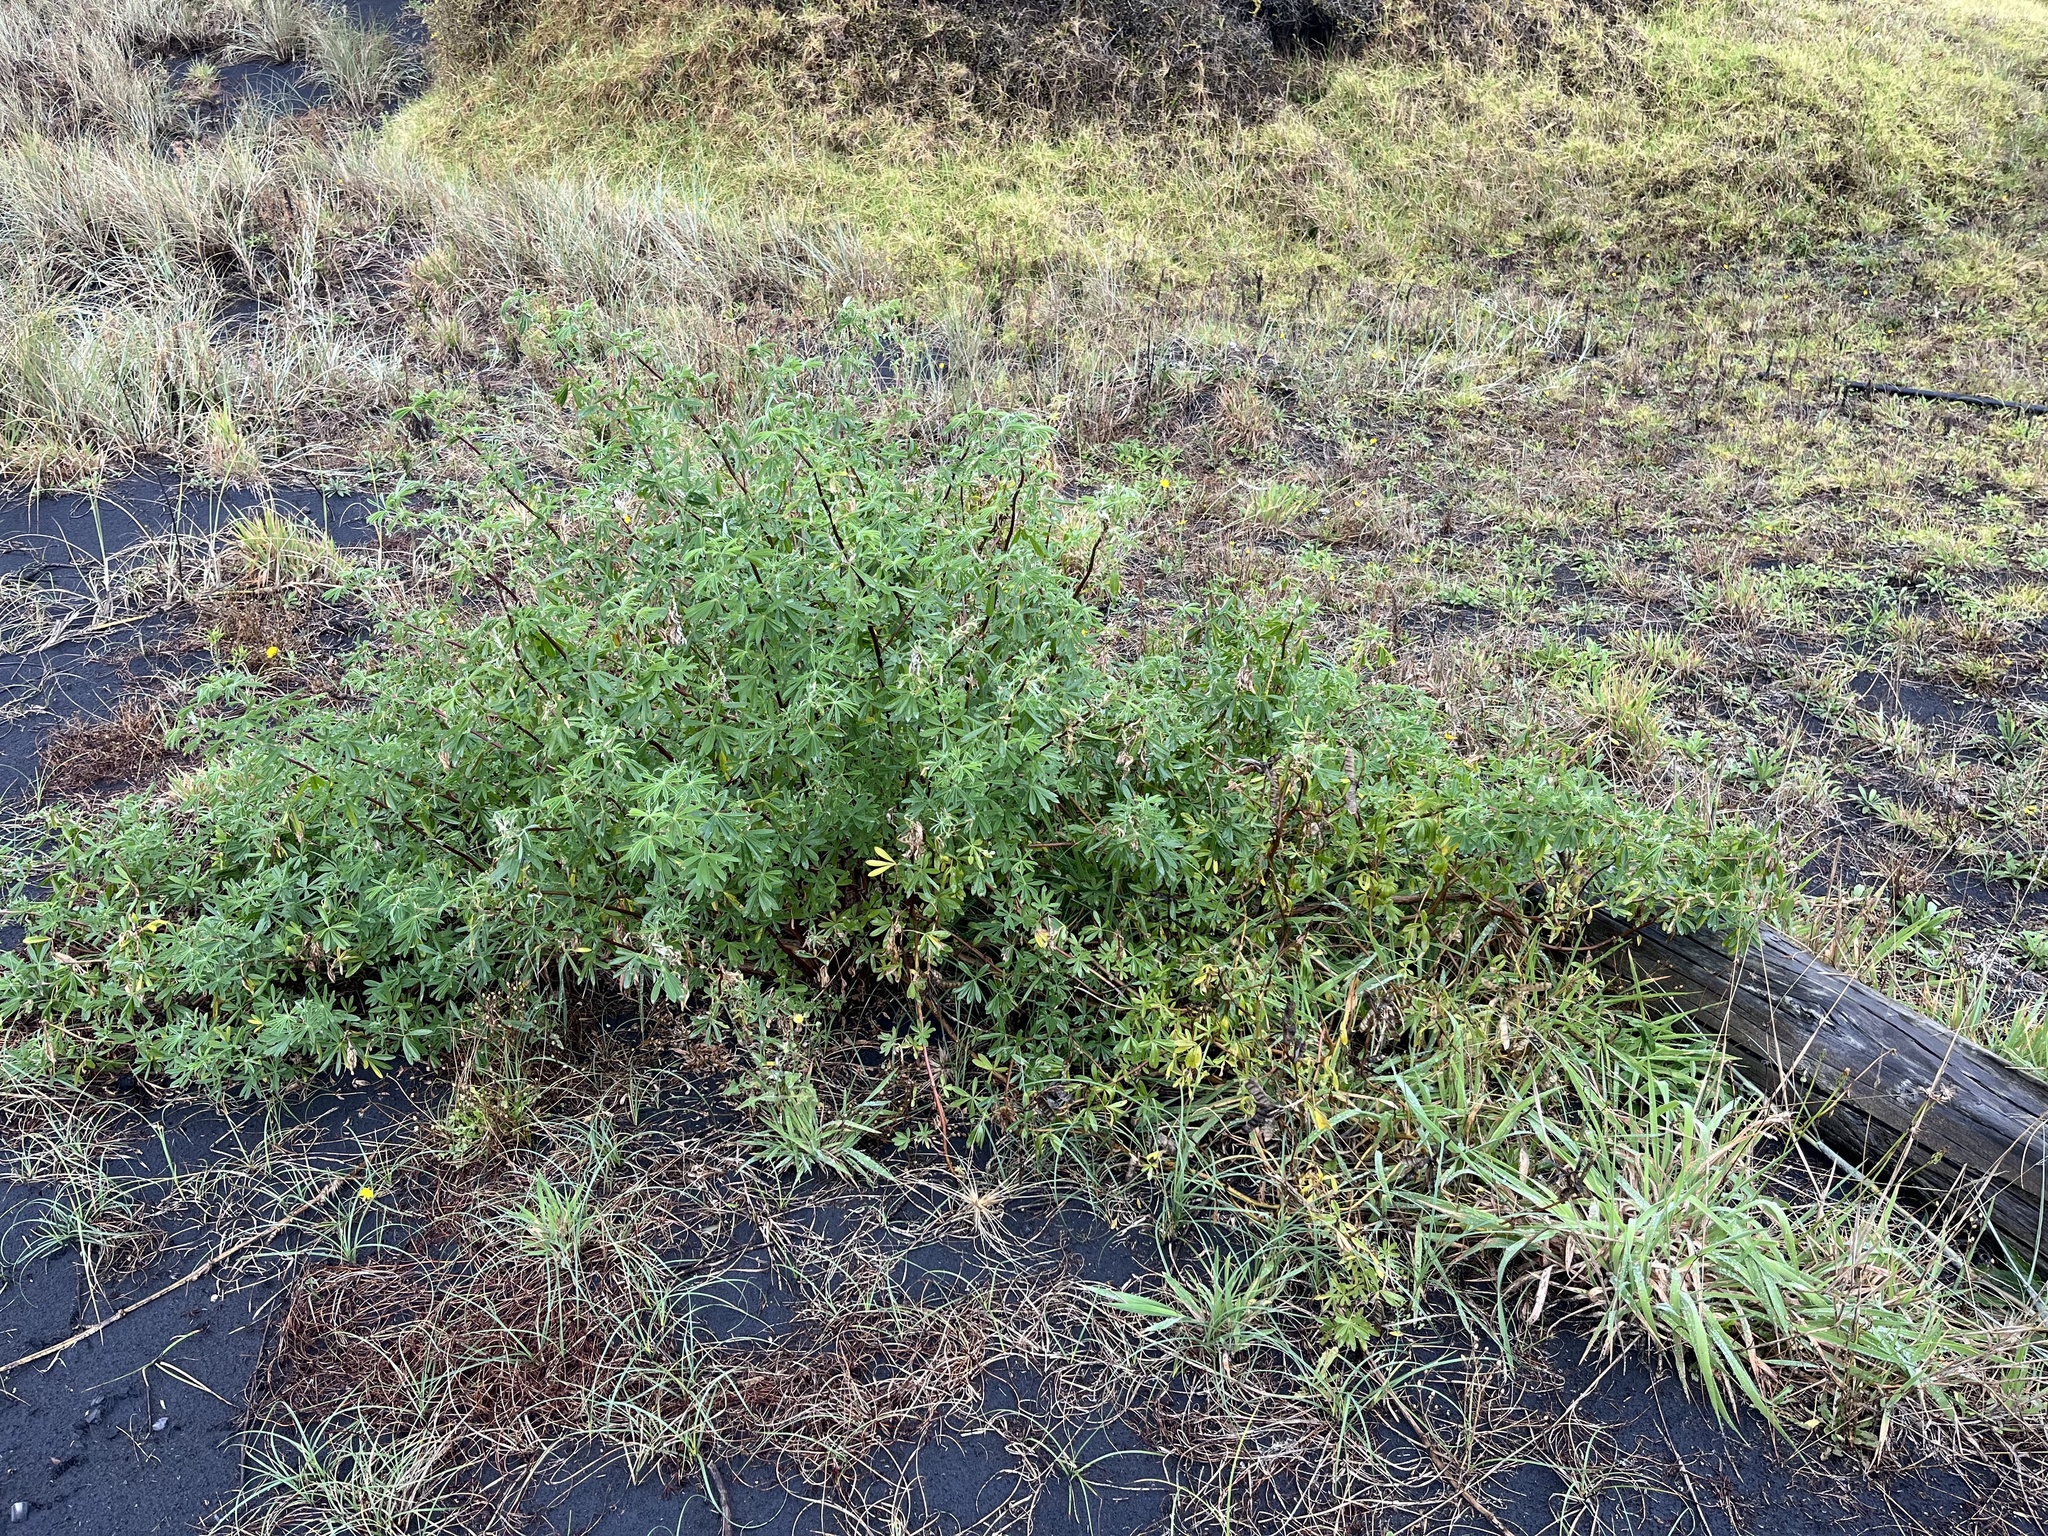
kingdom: Plantae
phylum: Tracheophyta
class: Magnoliopsida
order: Fabales
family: Fabaceae
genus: Lupinus
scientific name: Lupinus arboreus
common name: Yellow bush lupine
